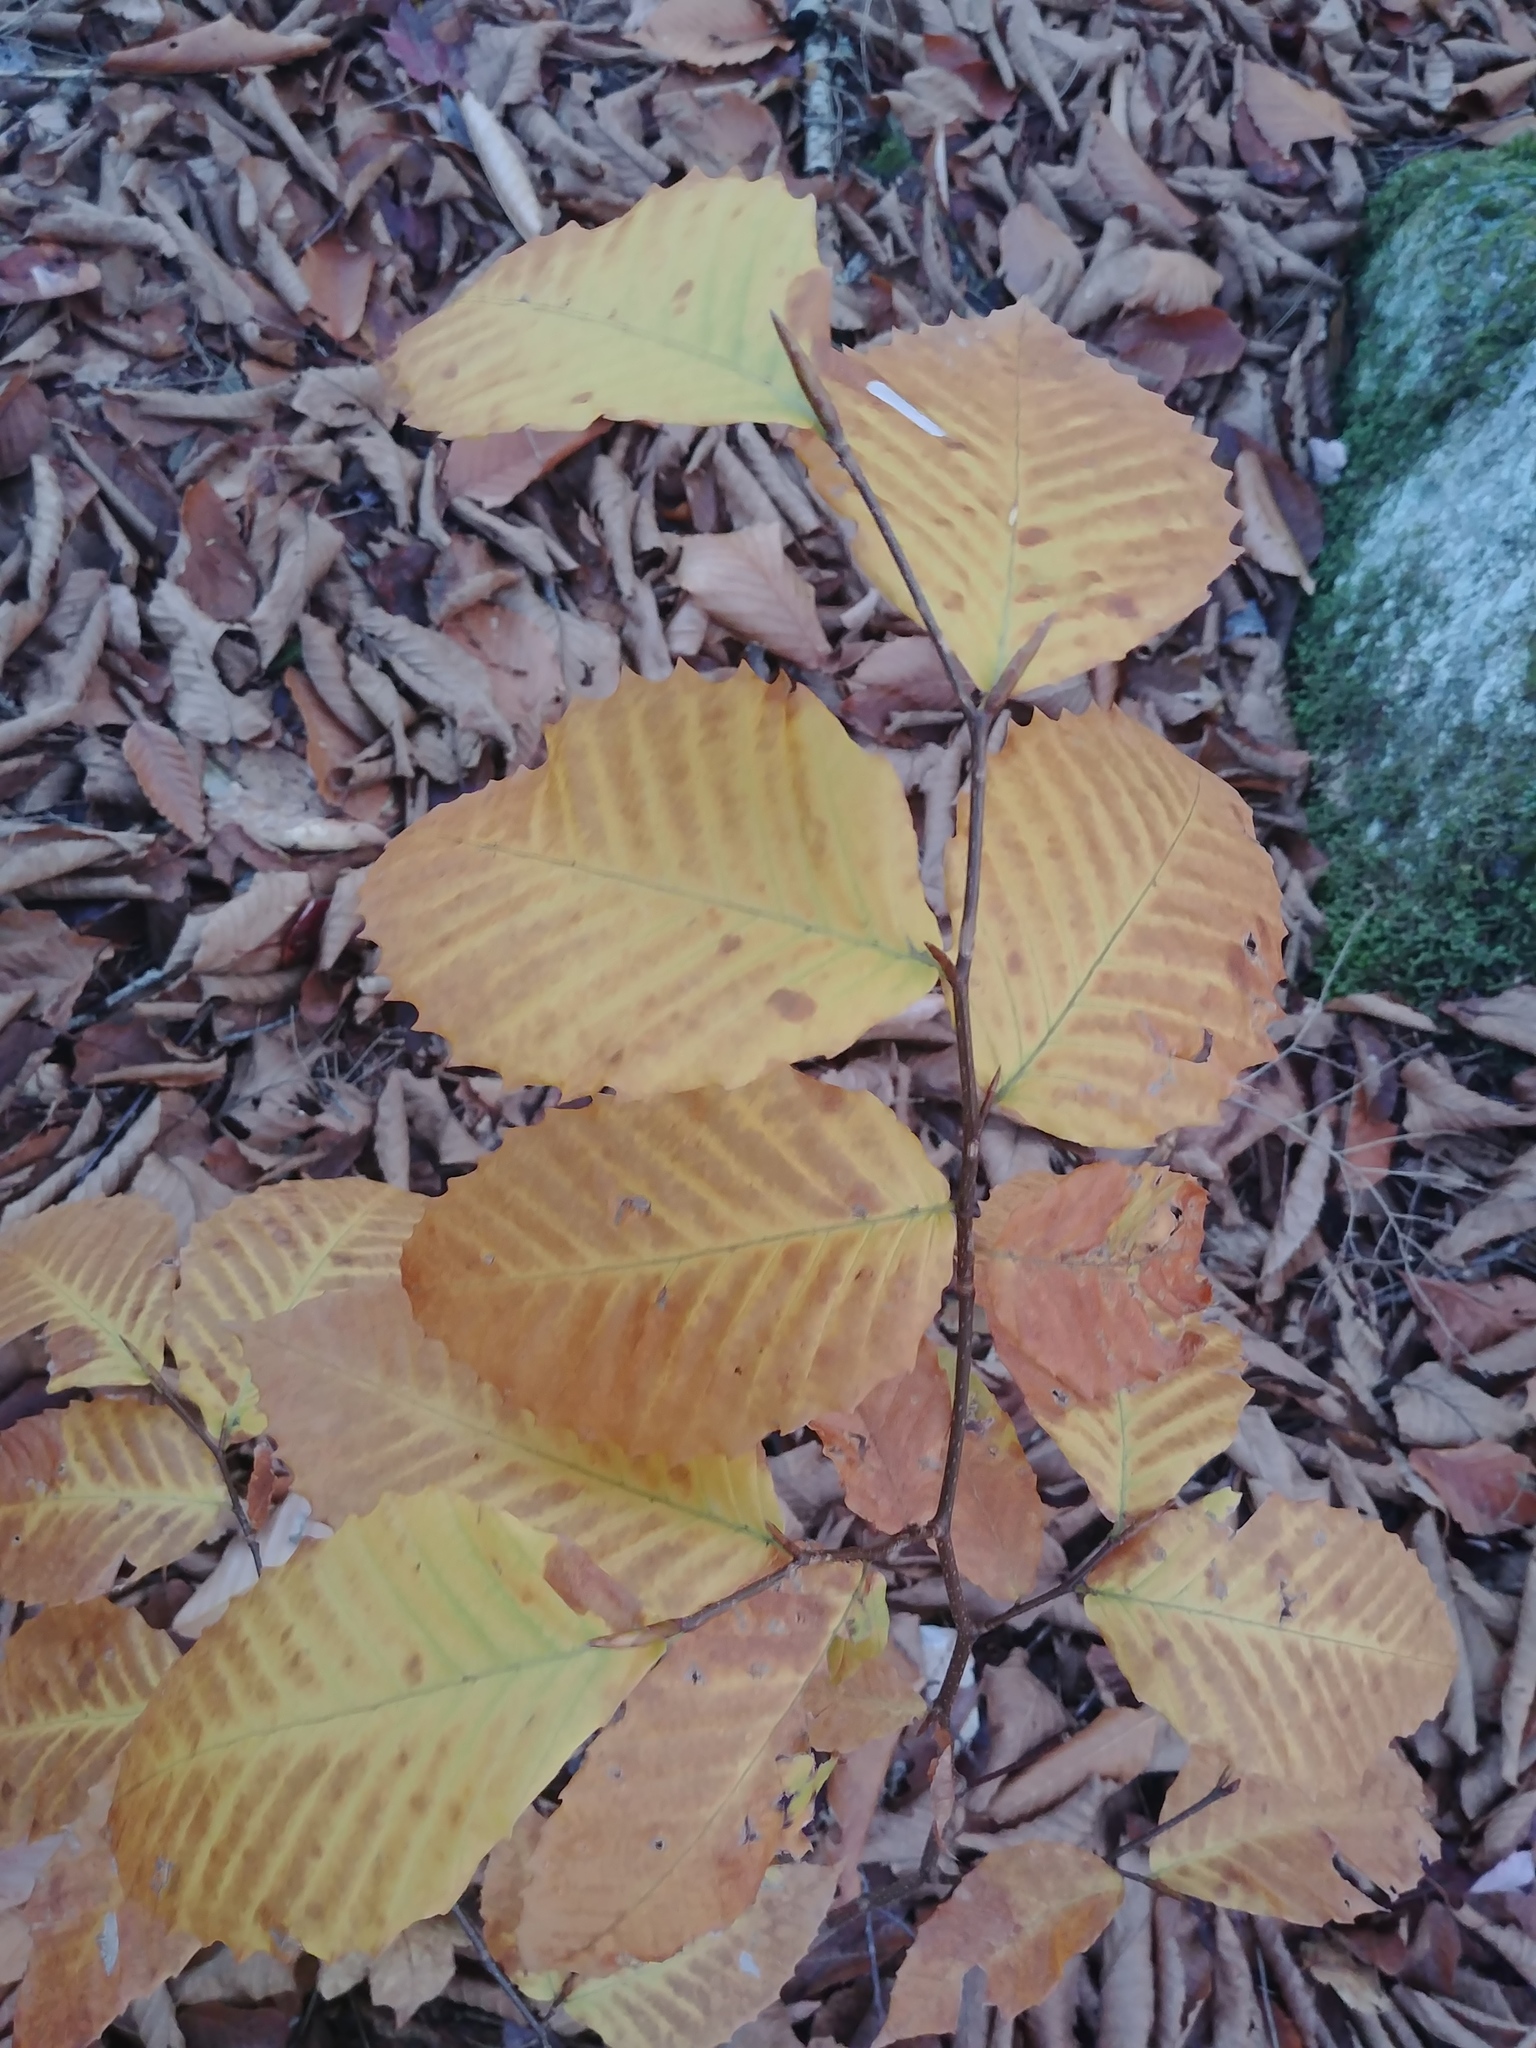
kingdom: Plantae
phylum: Tracheophyta
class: Magnoliopsida
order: Fagales
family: Fagaceae
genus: Fagus
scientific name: Fagus grandifolia
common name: American beech
